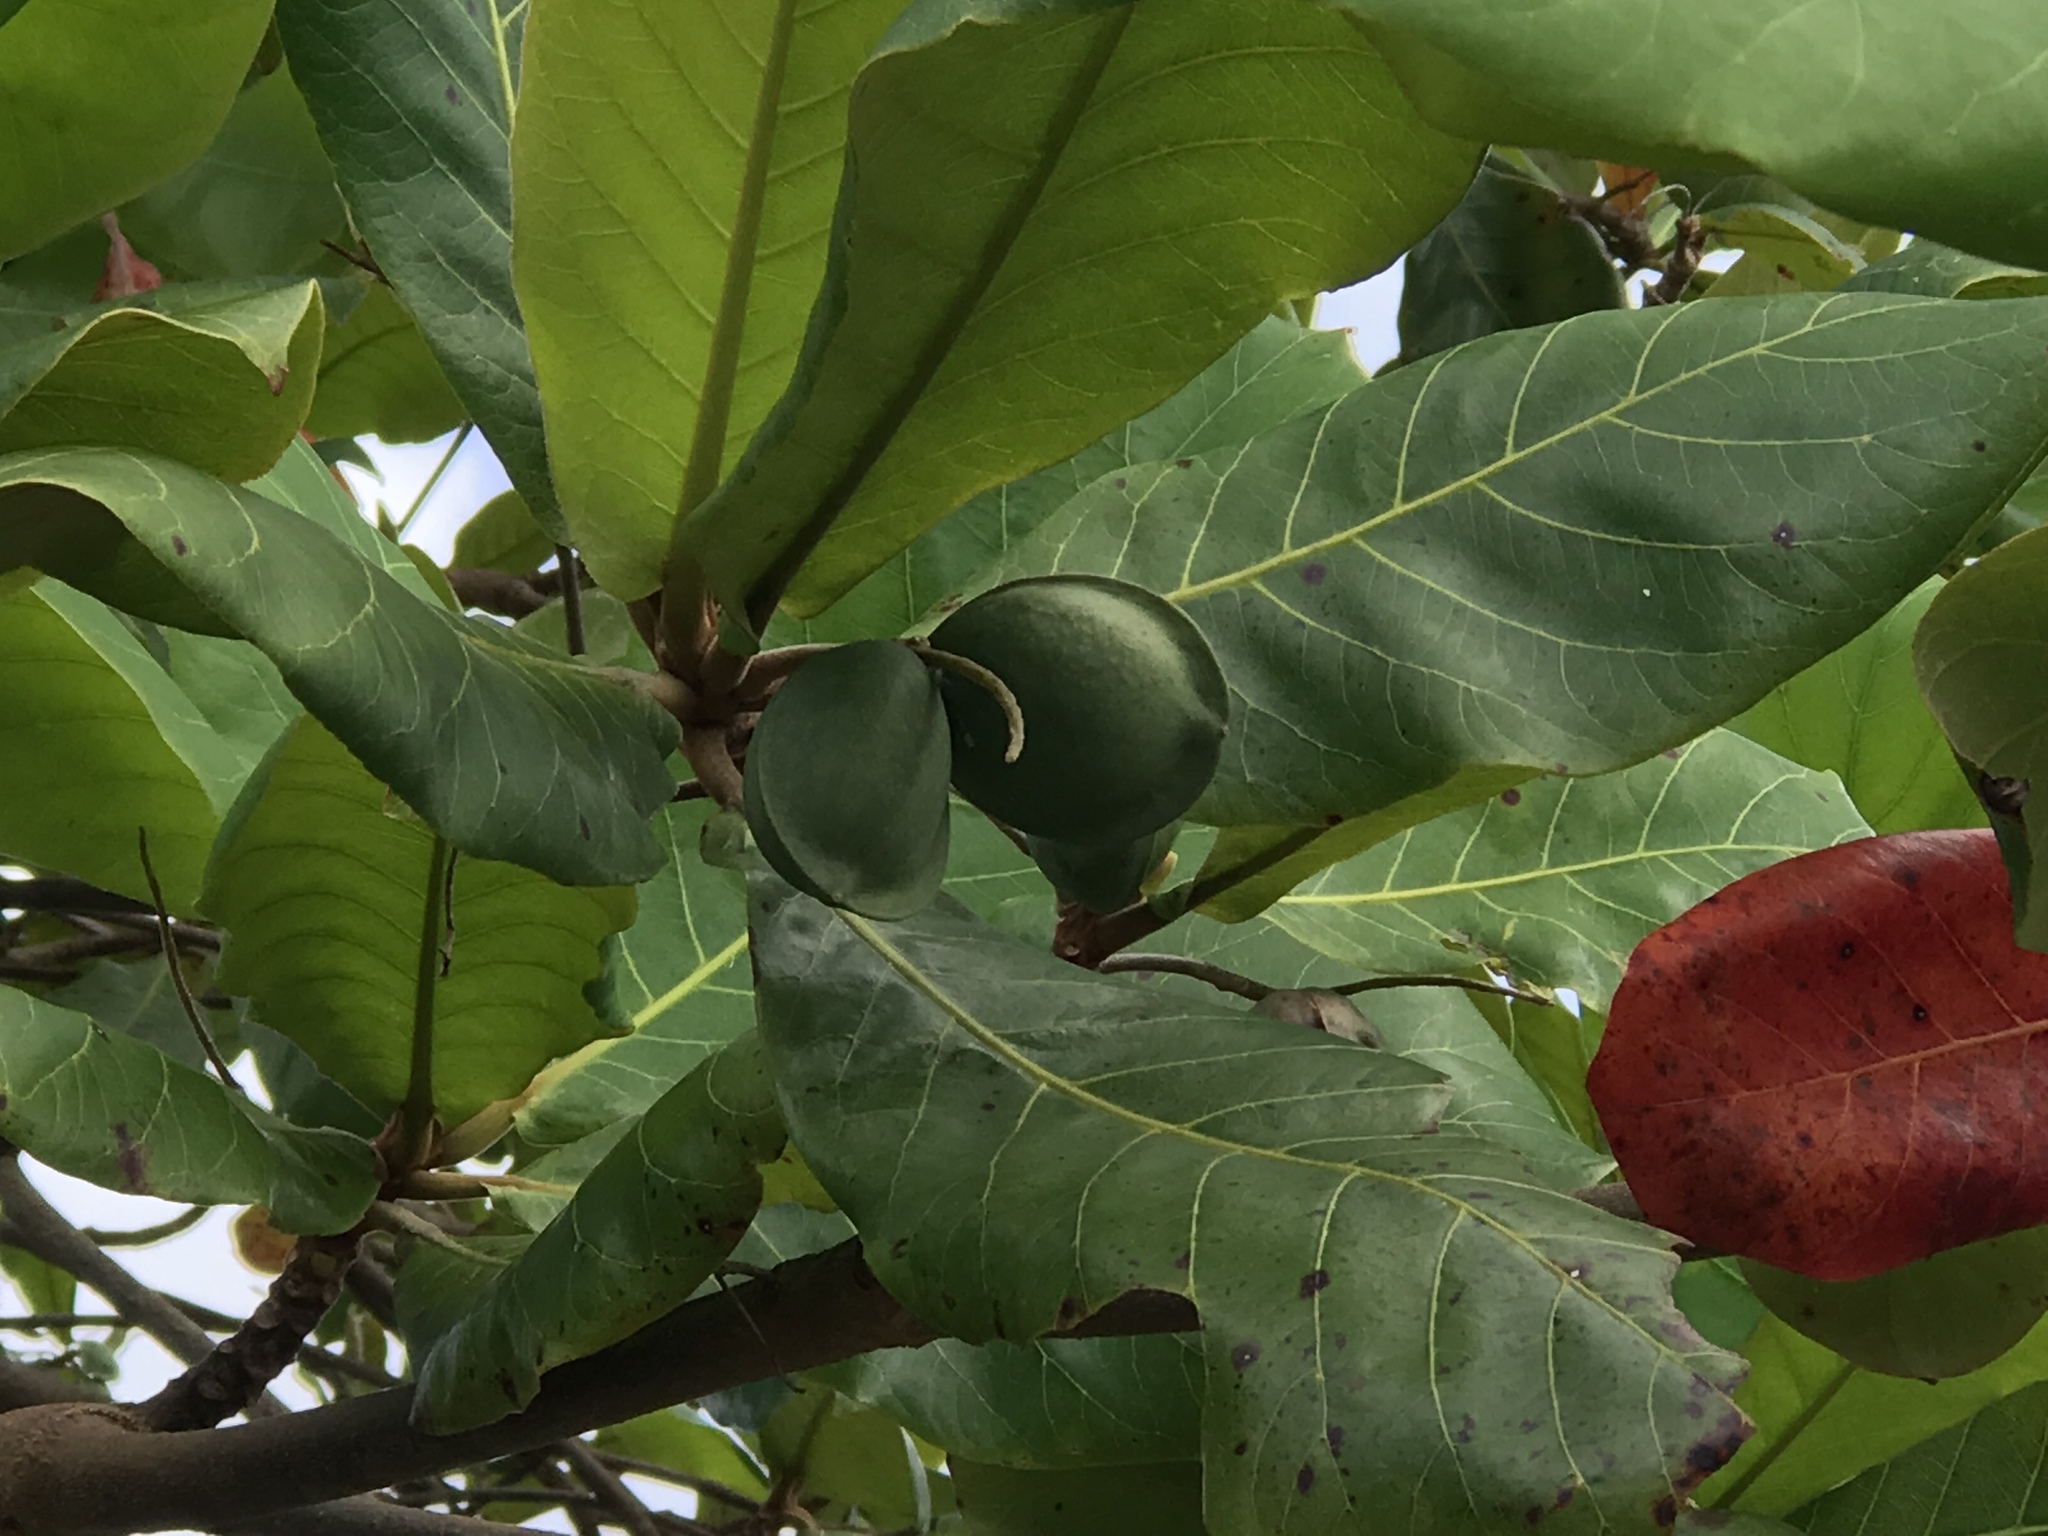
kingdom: Plantae
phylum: Tracheophyta
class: Magnoliopsida
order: Myrtales
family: Combretaceae
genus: Terminalia
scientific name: Terminalia catappa
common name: Tropical almond
